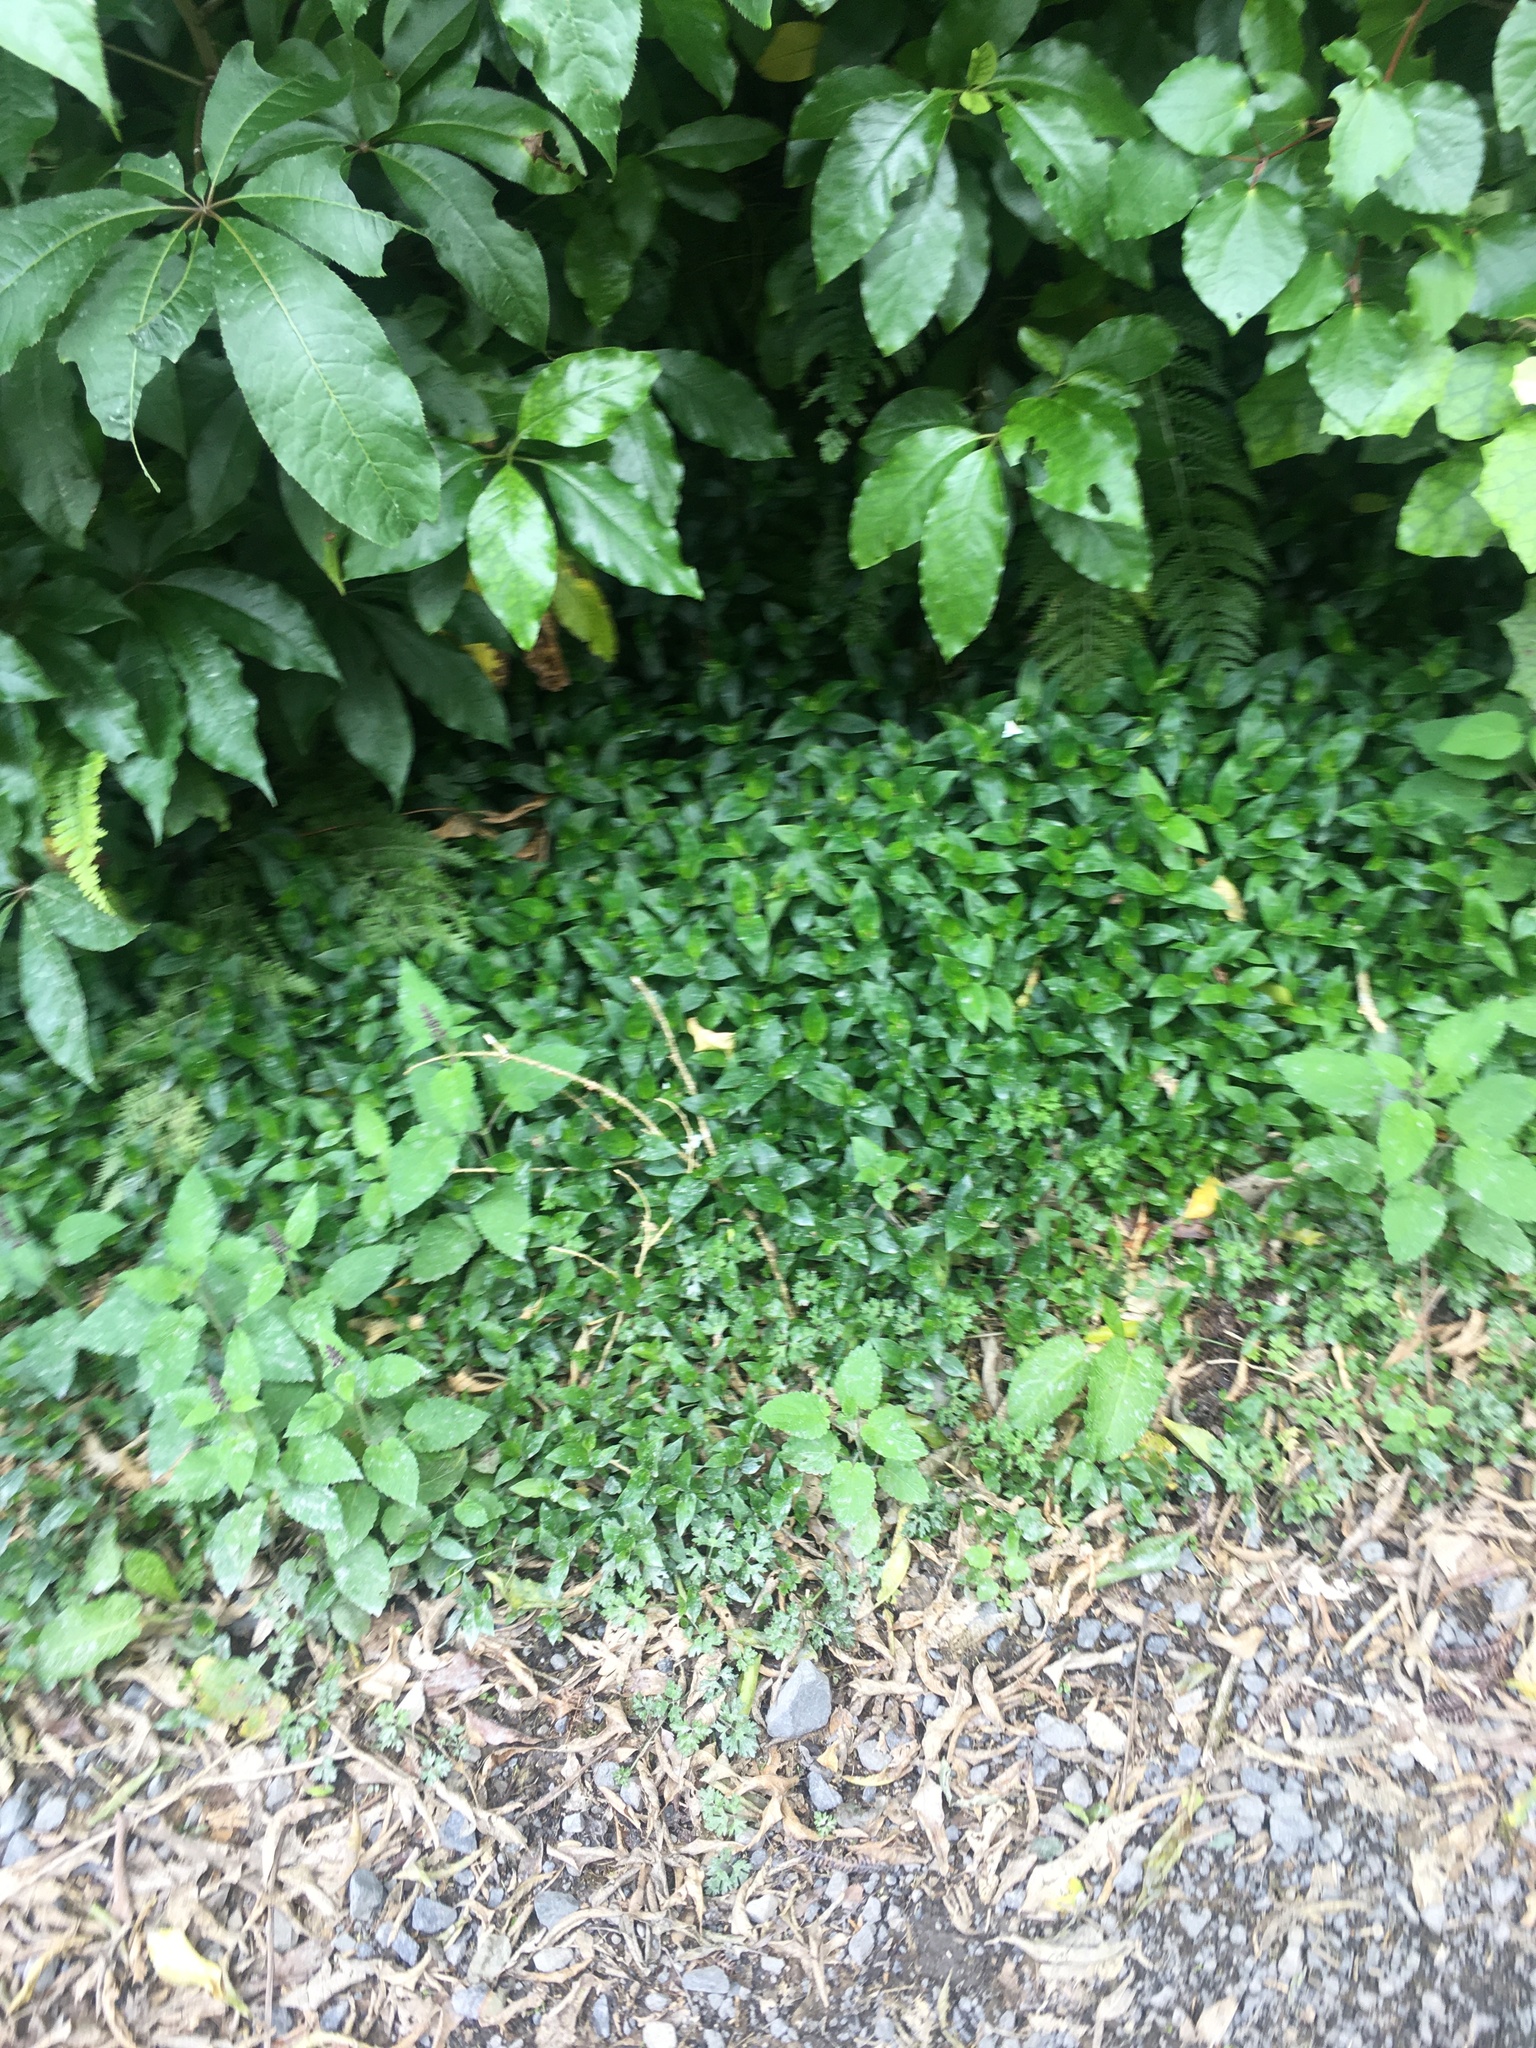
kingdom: Plantae
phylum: Tracheophyta
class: Liliopsida
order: Commelinales
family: Commelinaceae
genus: Tradescantia
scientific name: Tradescantia fluminensis
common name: Wandering-jew
